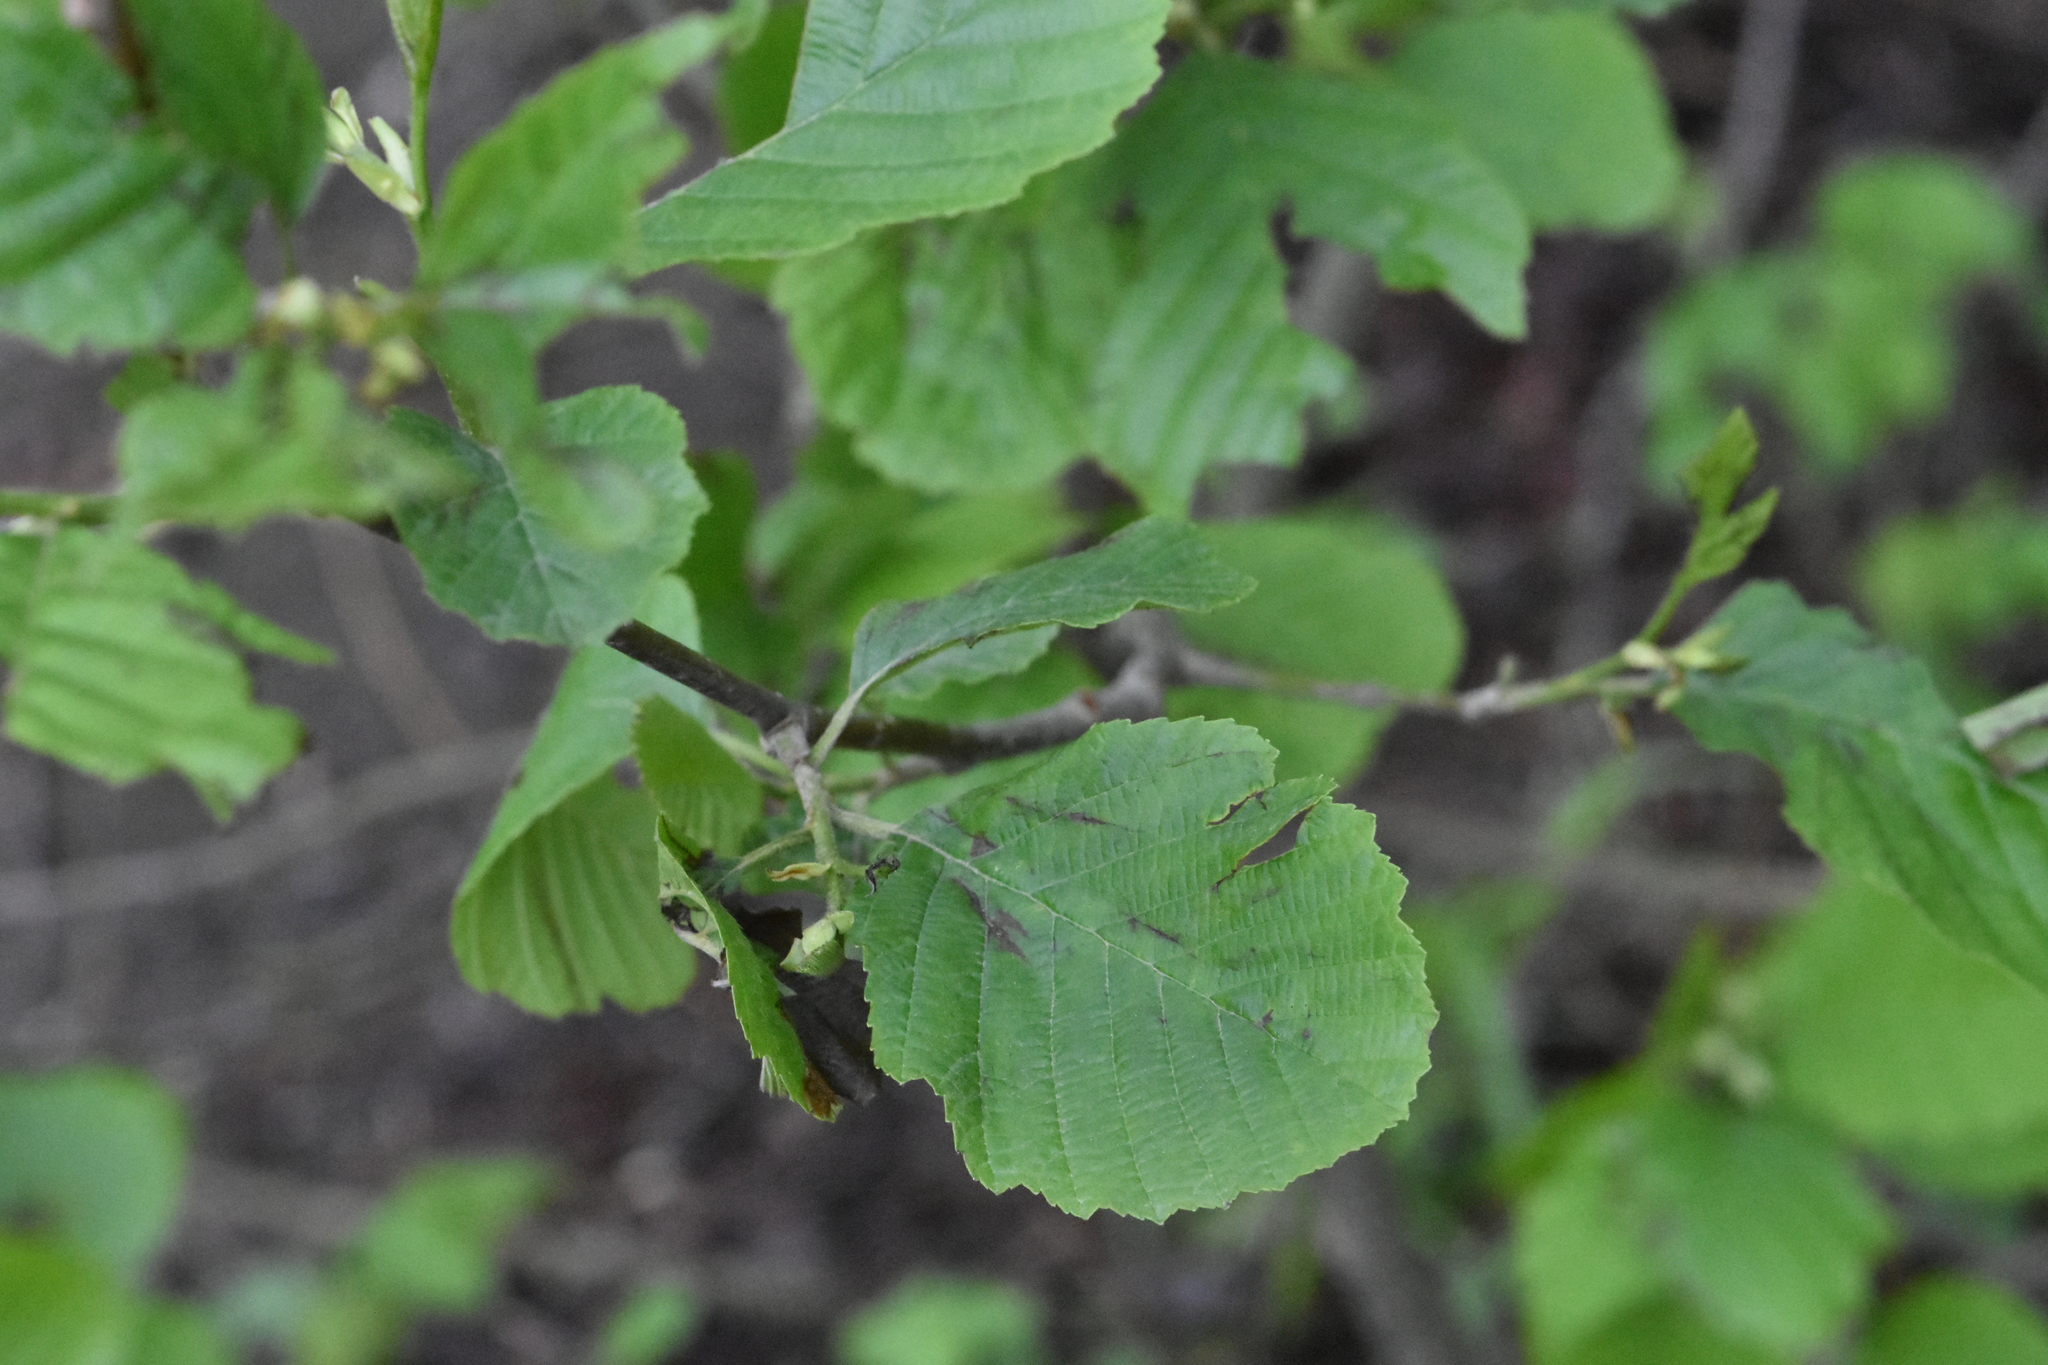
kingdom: Plantae
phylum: Tracheophyta
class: Magnoliopsida
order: Fagales
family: Betulaceae
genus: Alnus
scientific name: Alnus glutinosa
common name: Black alder
